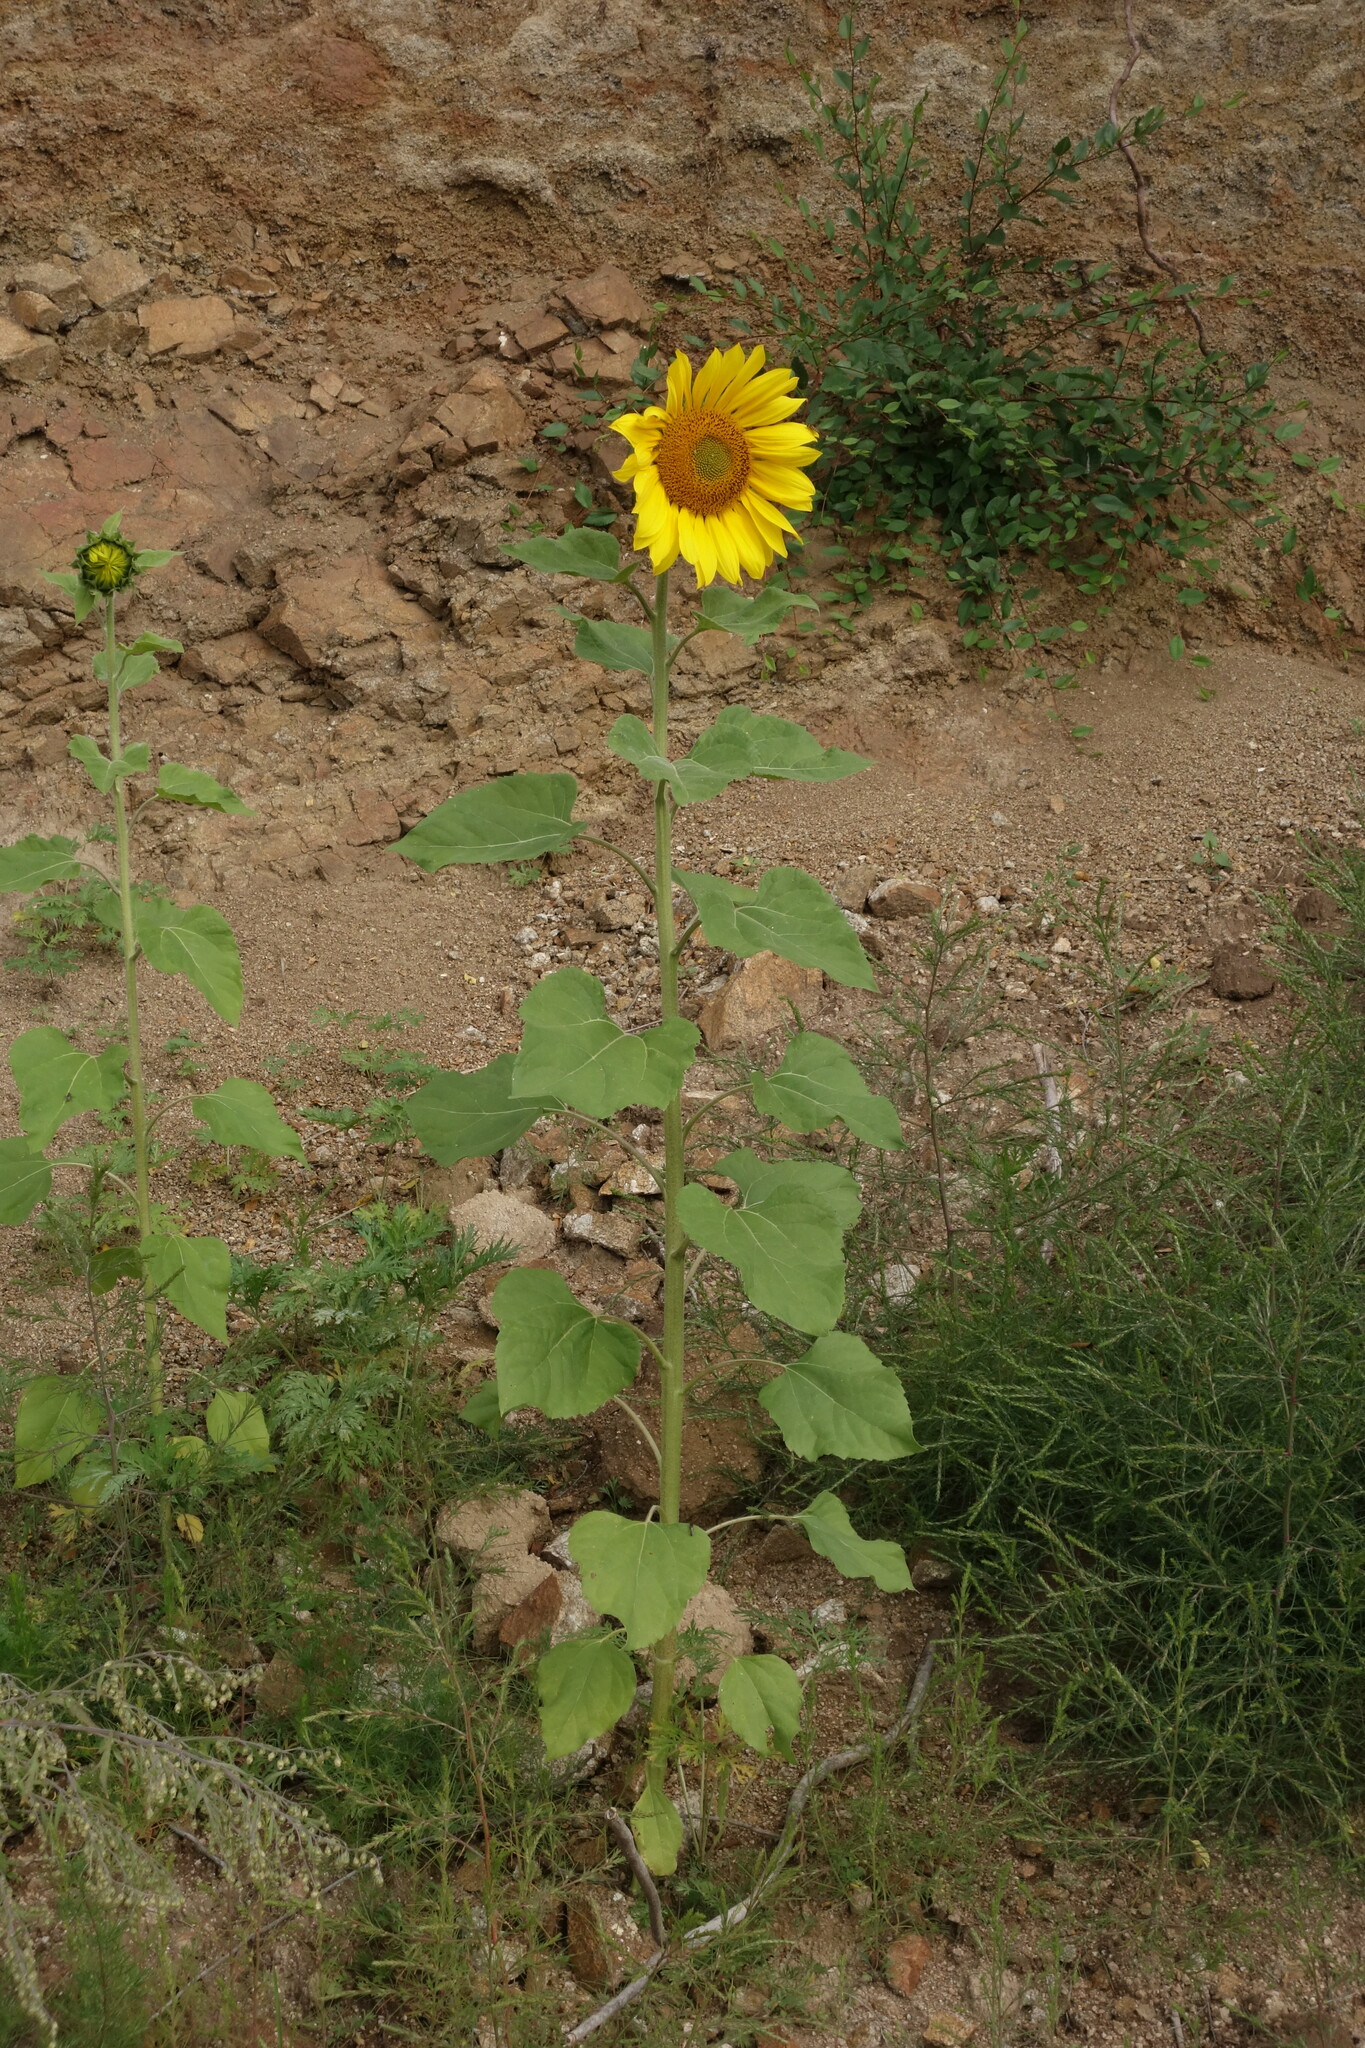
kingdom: Plantae
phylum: Tracheophyta
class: Magnoliopsida
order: Asterales
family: Asteraceae
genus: Helianthus
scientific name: Helianthus annuus
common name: Sunflower
